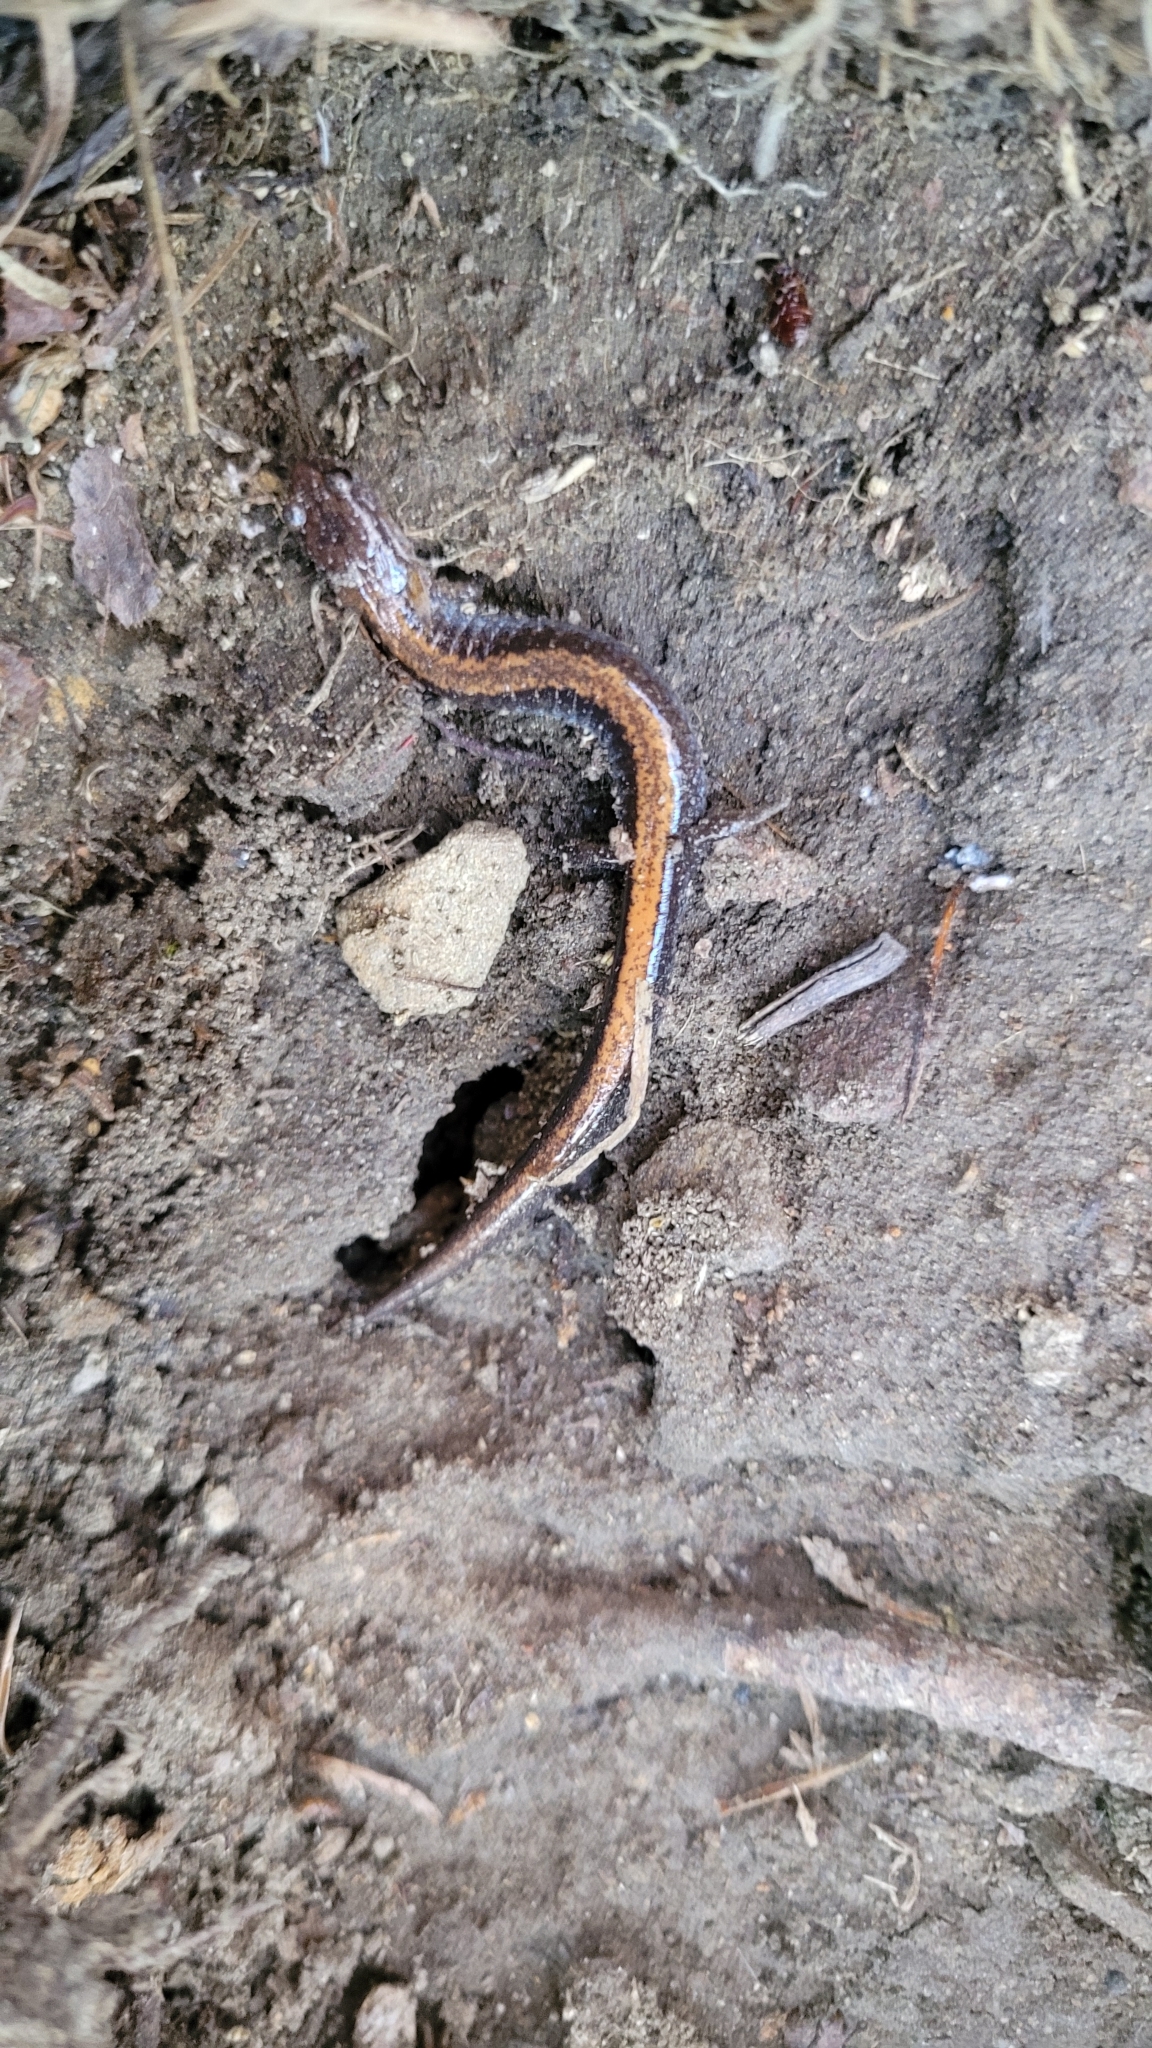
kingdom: Animalia
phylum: Chordata
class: Amphibia
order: Caudata
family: Plethodontidae
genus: Plethodon
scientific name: Plethodon cinereus
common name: Redback salamander
